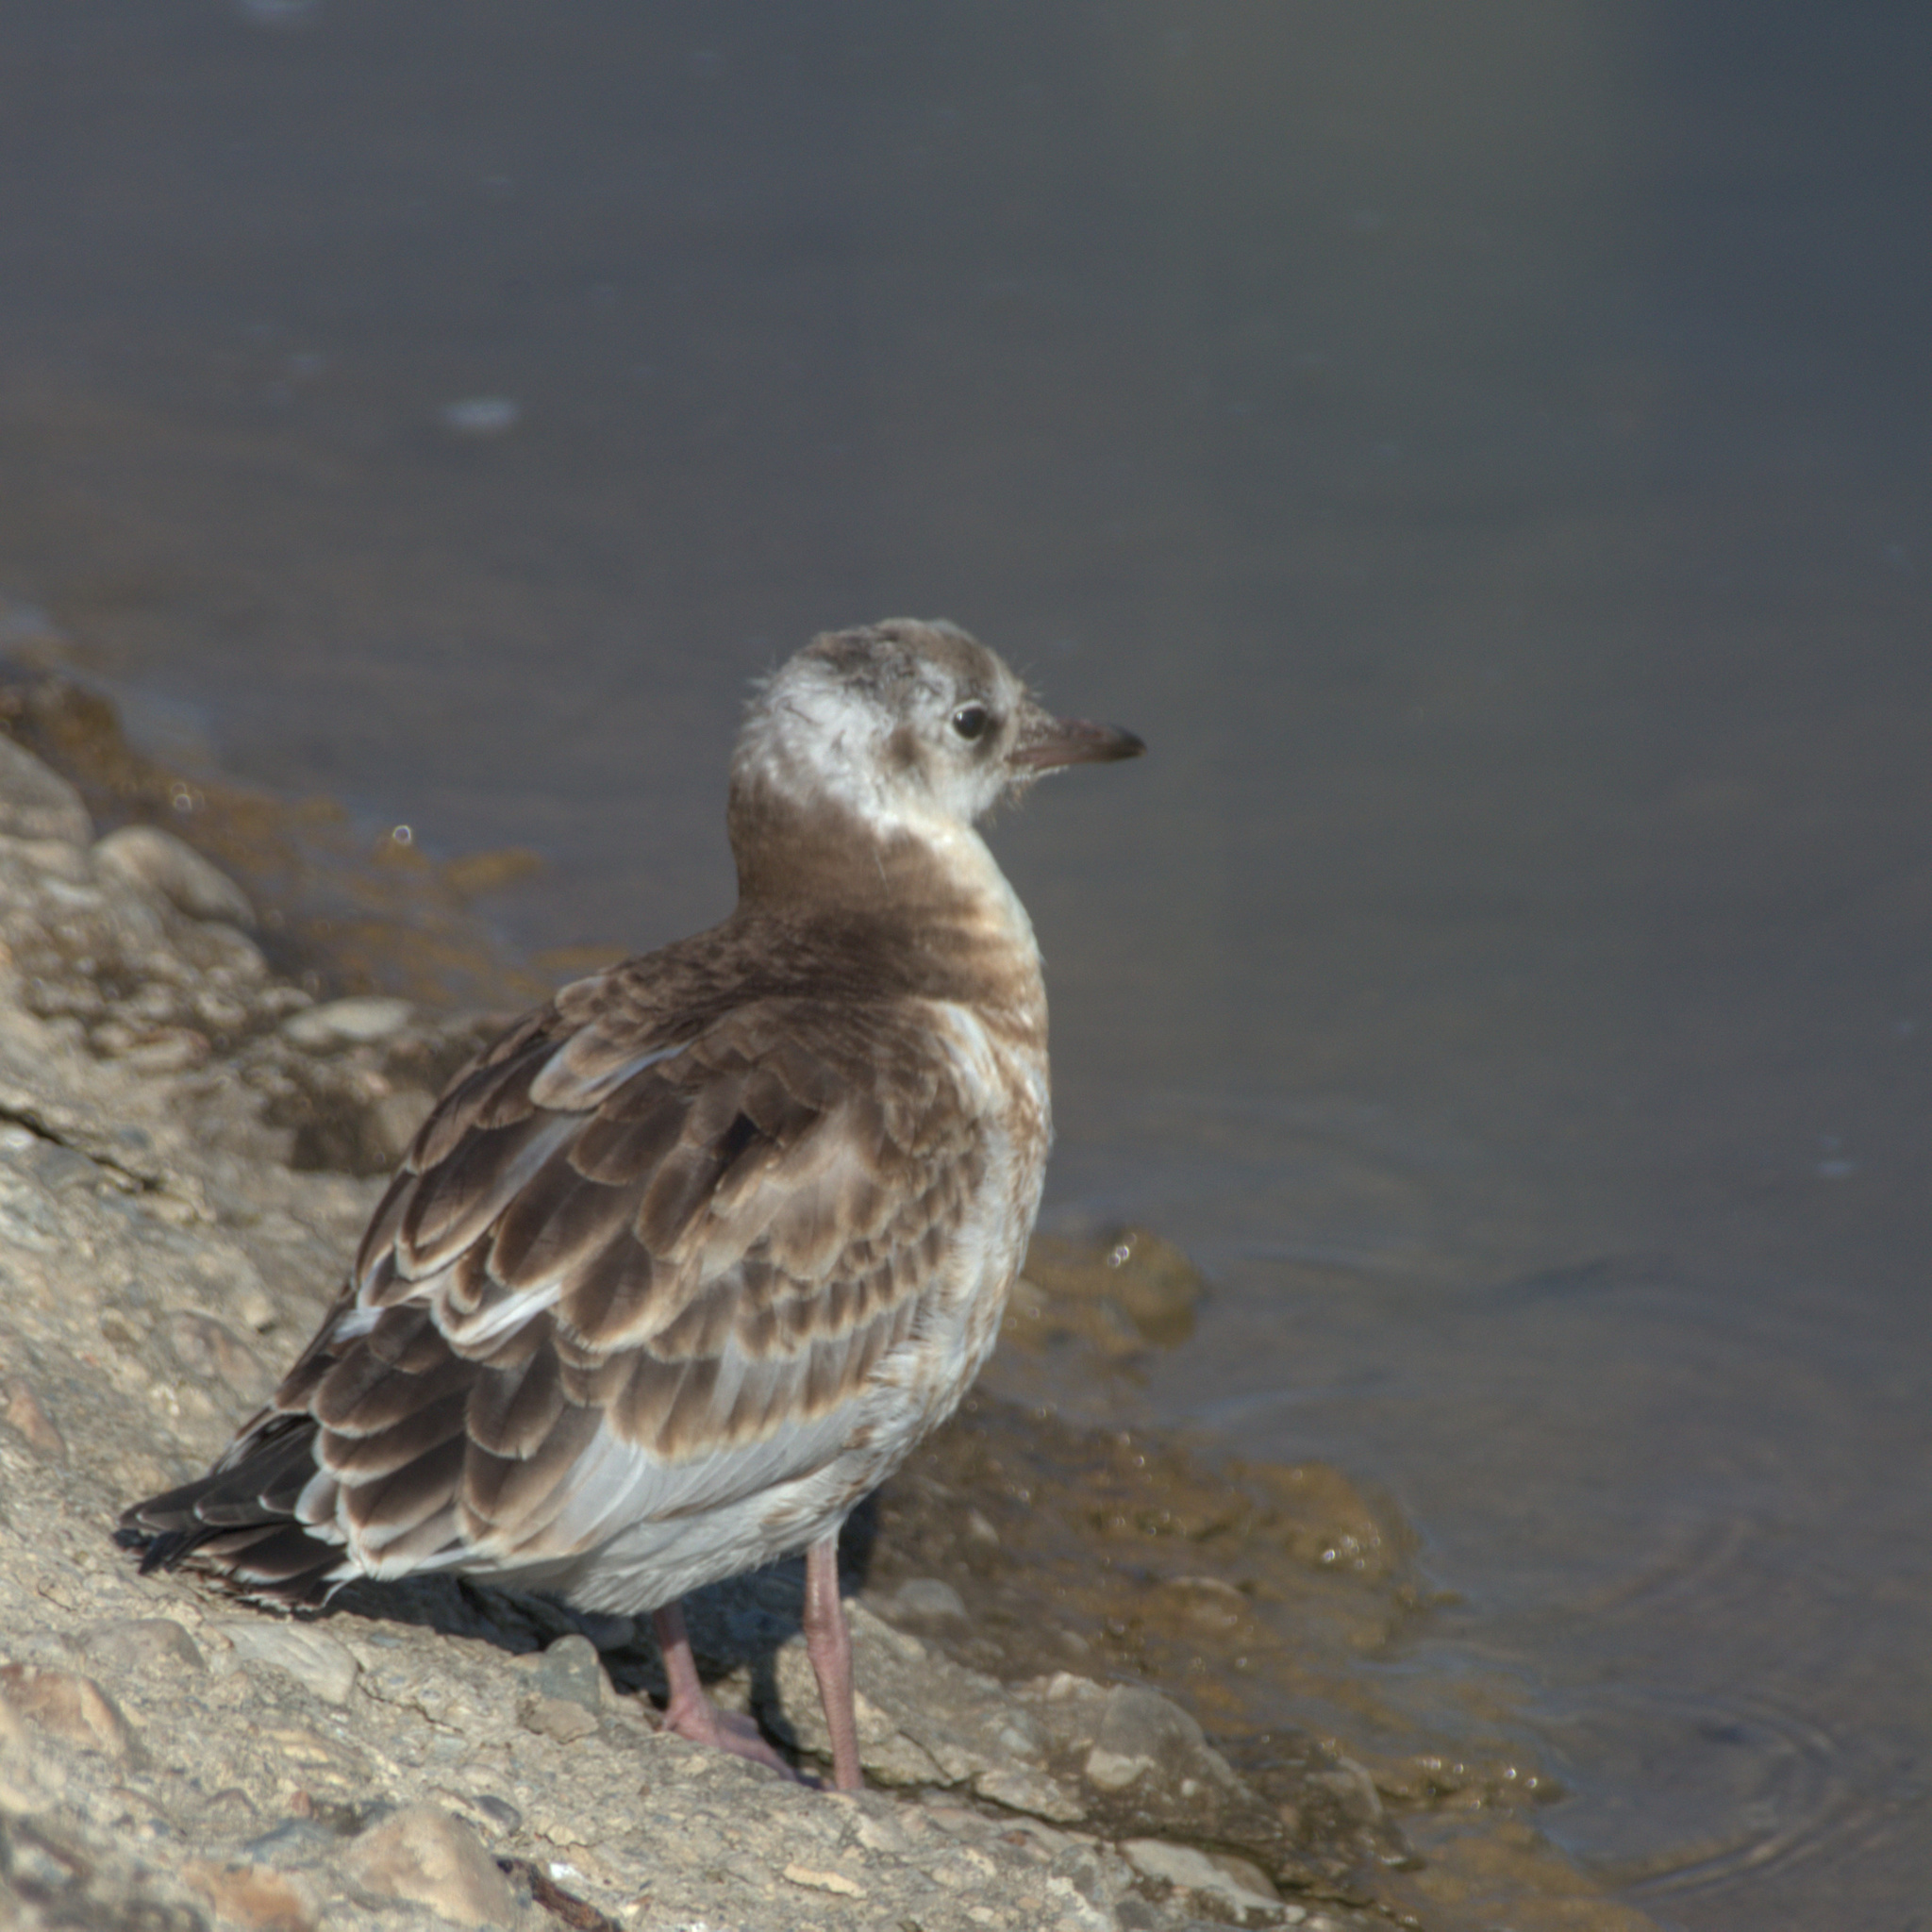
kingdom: Animalia
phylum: Chordata
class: Aves
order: Charadriiformes
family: Laridae
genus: Chroicocephalus
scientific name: Chroicocephalus ridibundus
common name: Black-headed gull
